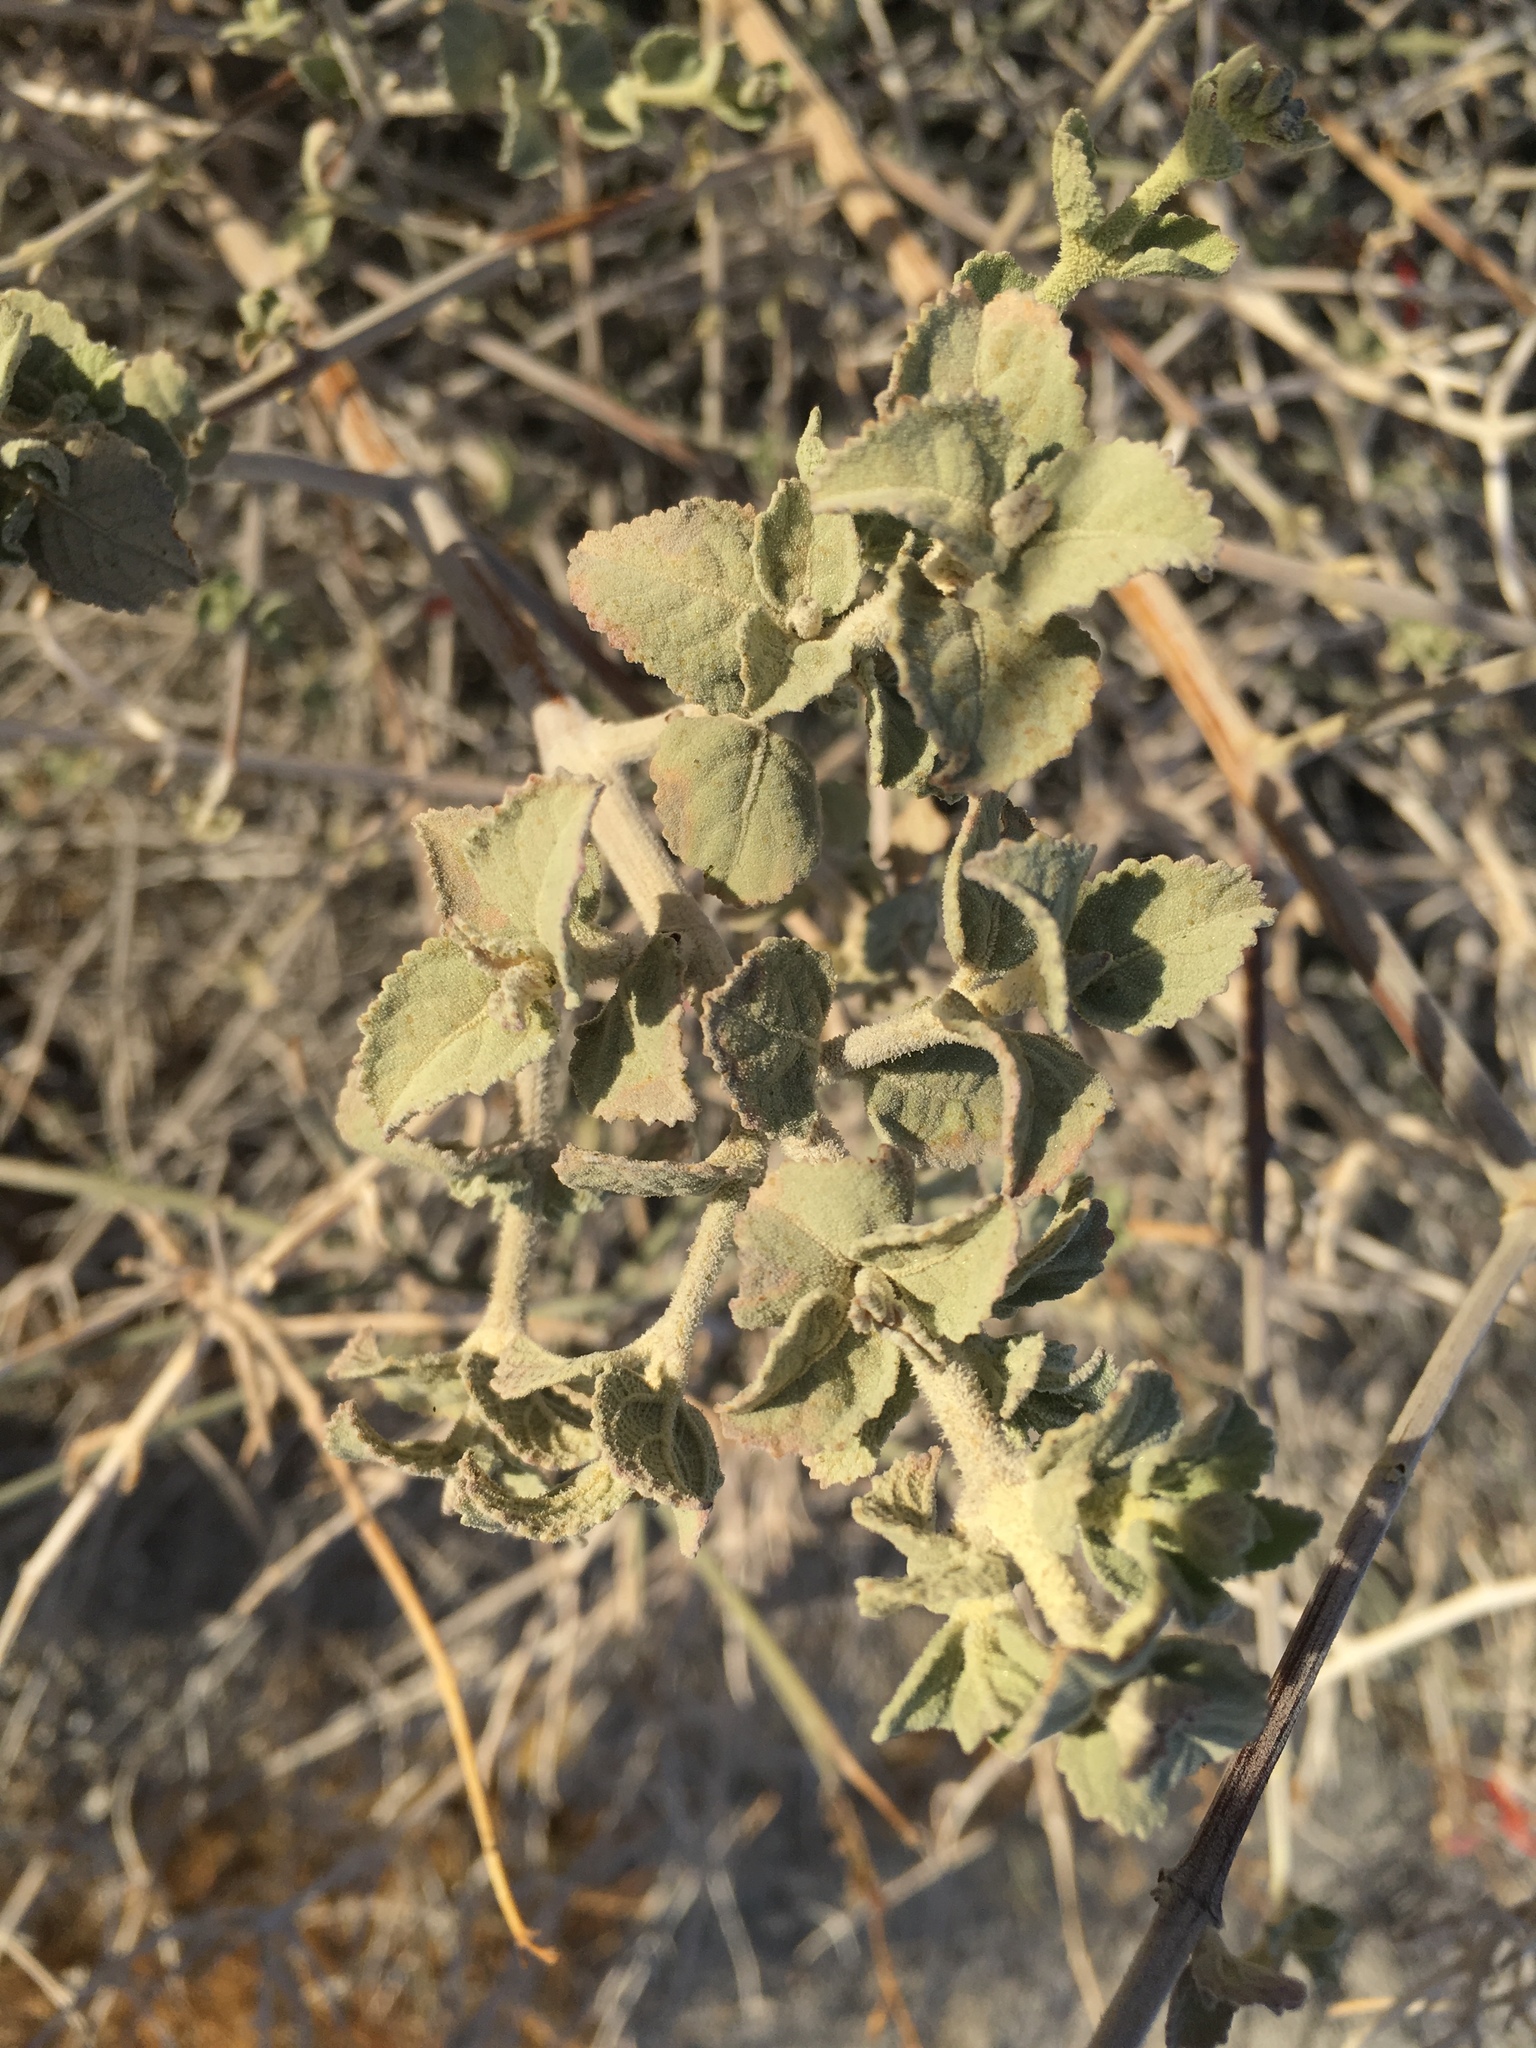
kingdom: Plantae
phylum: Tracheophyta
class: Magnoliopsida
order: Lamiales
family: Lamiaceae
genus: Condea
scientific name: Condea emoryi
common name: Chia
